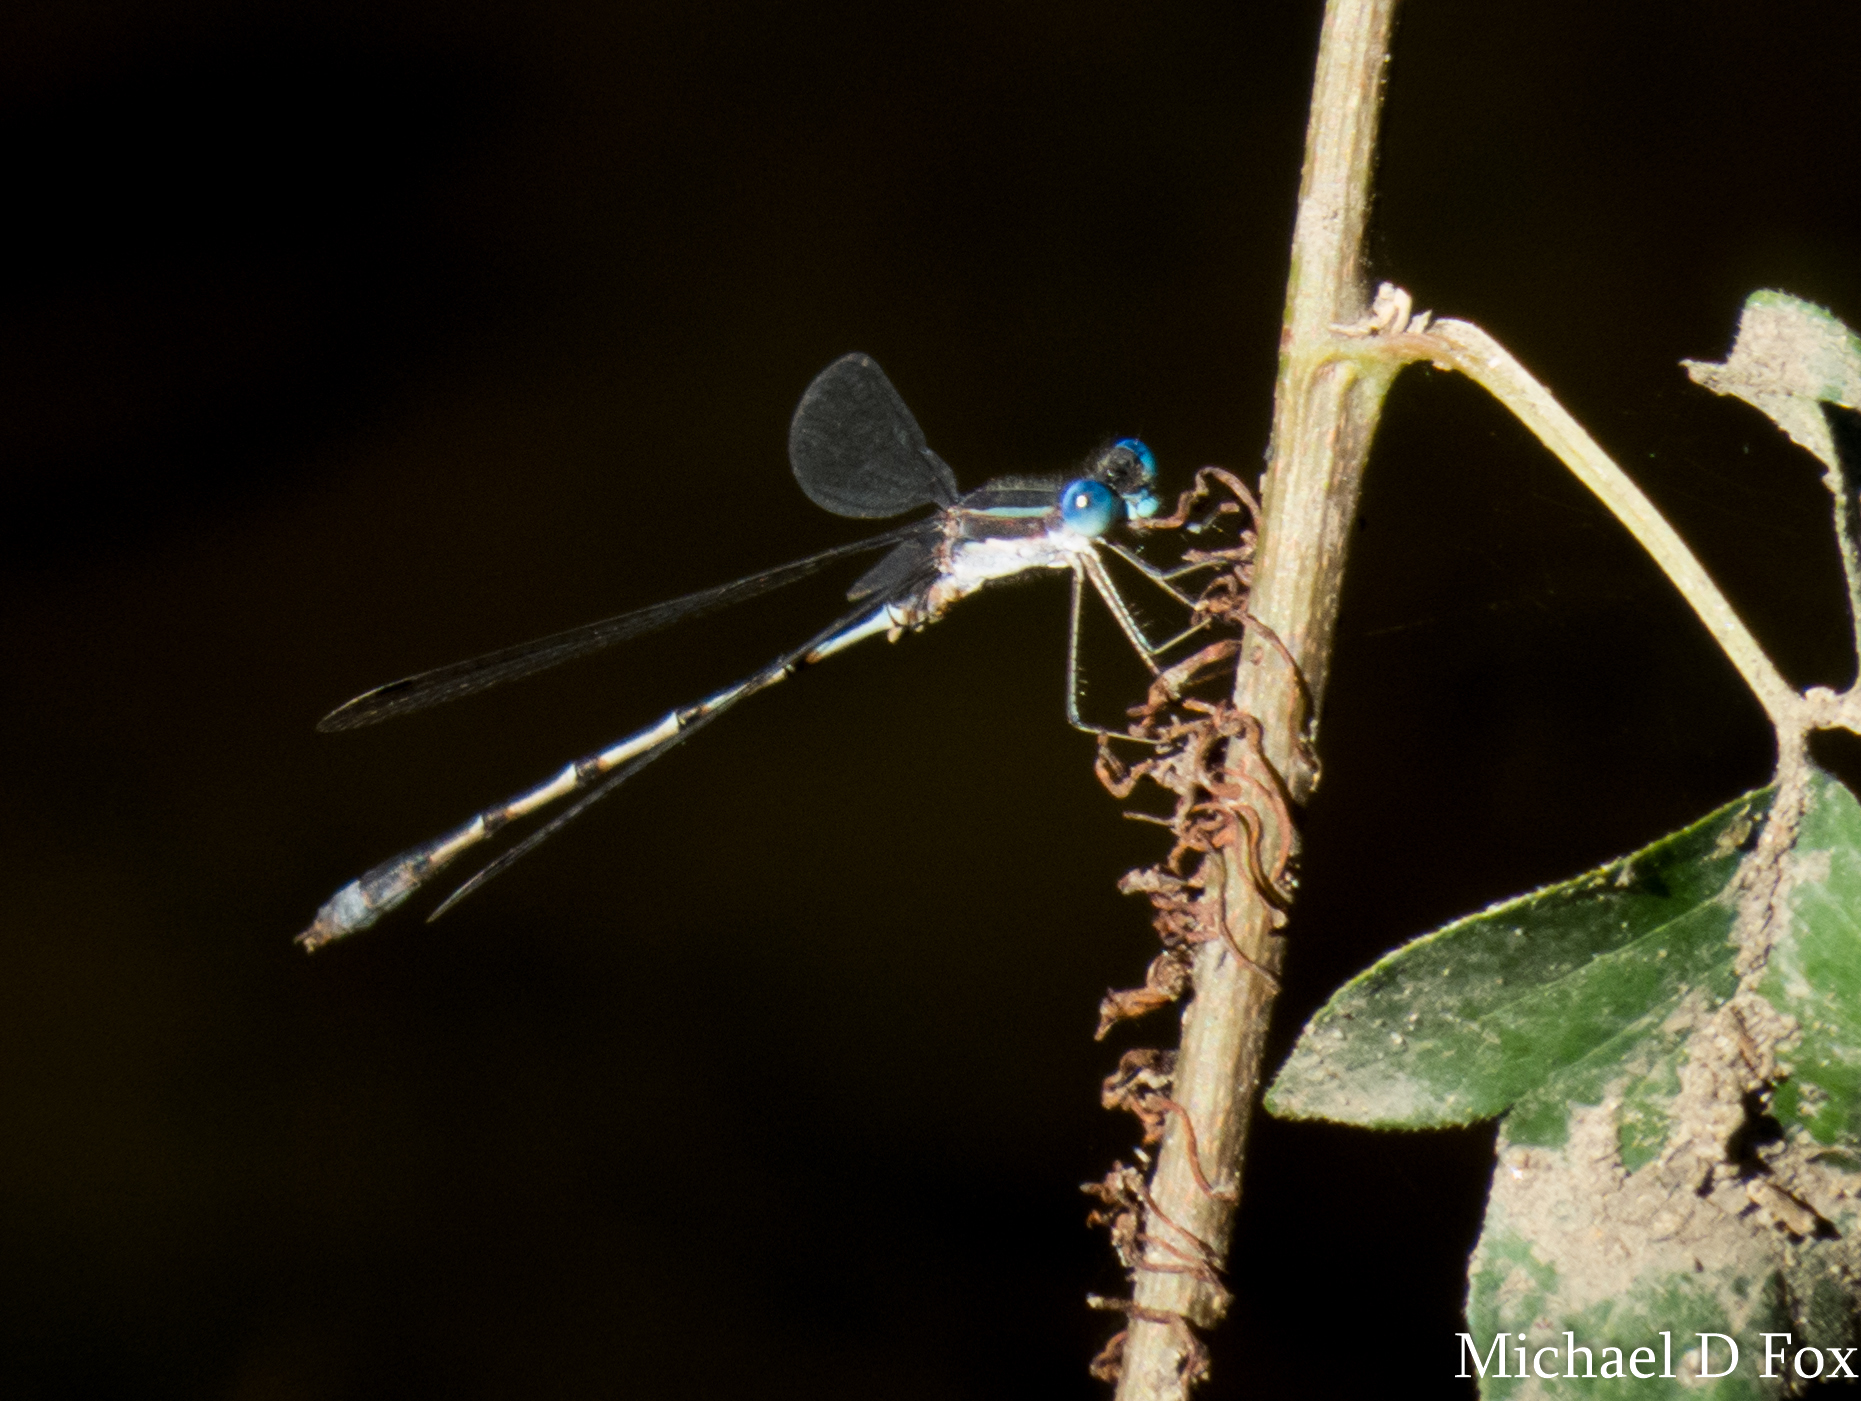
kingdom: Animalia
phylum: Arthropoda
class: Insecta
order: Odonata
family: Lestidae
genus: Lestes
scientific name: Lestes australis
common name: Southern spreadwing
